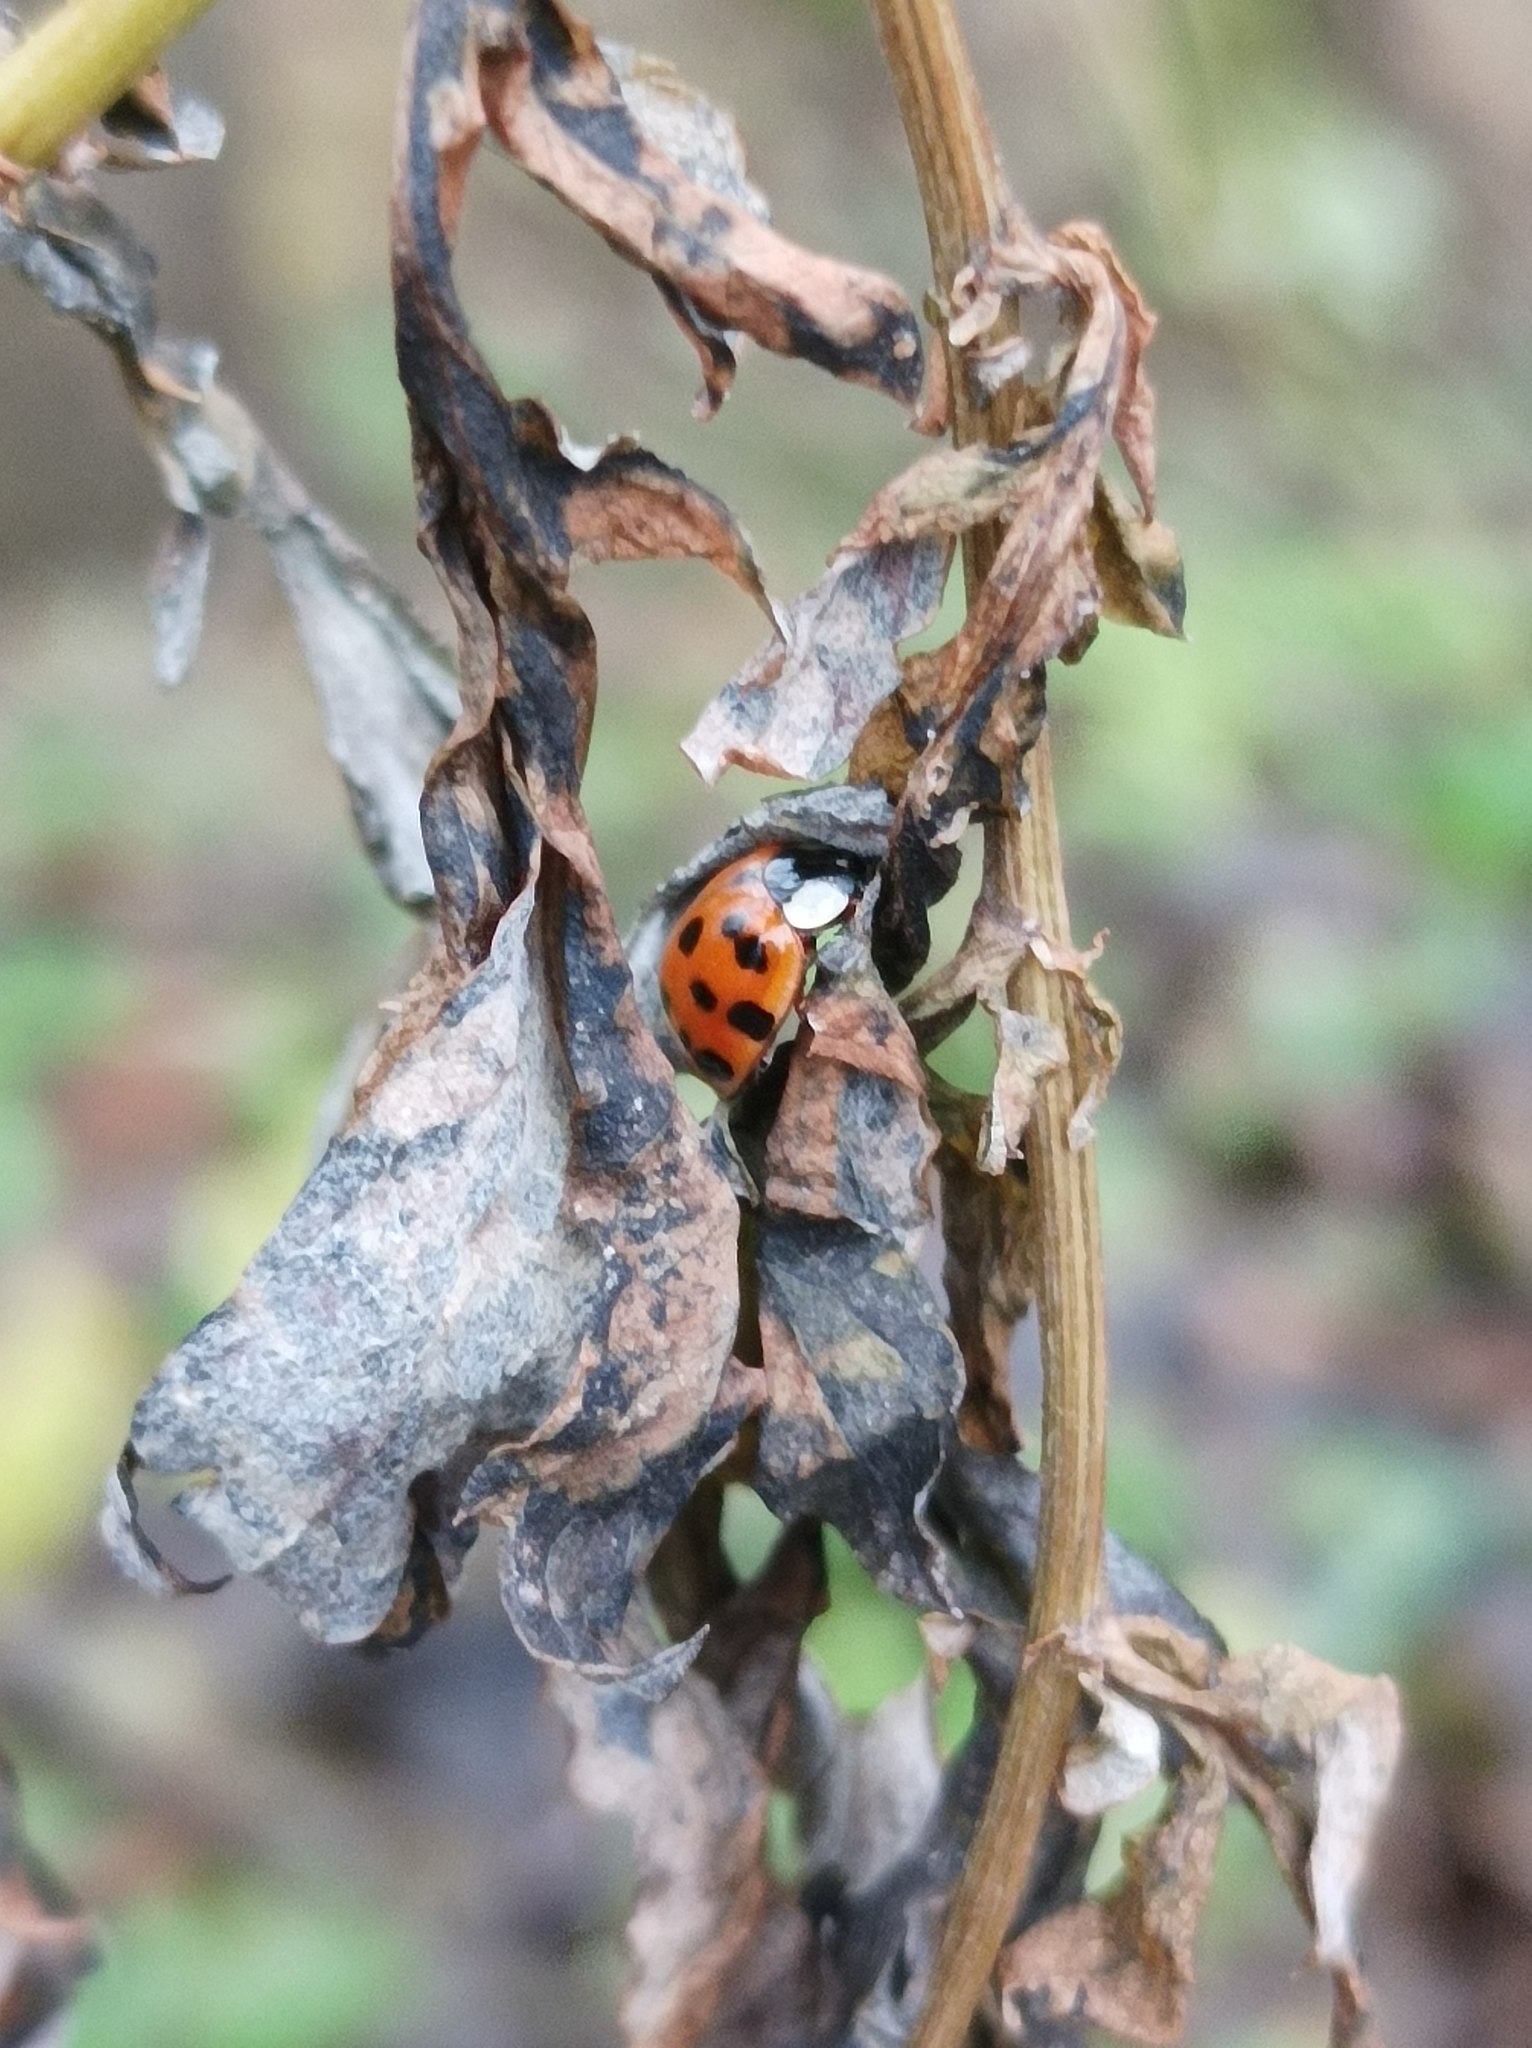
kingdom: Animalia
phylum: Arthropoda
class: Insecta
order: Coleoptera
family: Coccinellidae
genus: Harmonia
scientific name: Harmonia axyridis
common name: Harlequin ladybird
